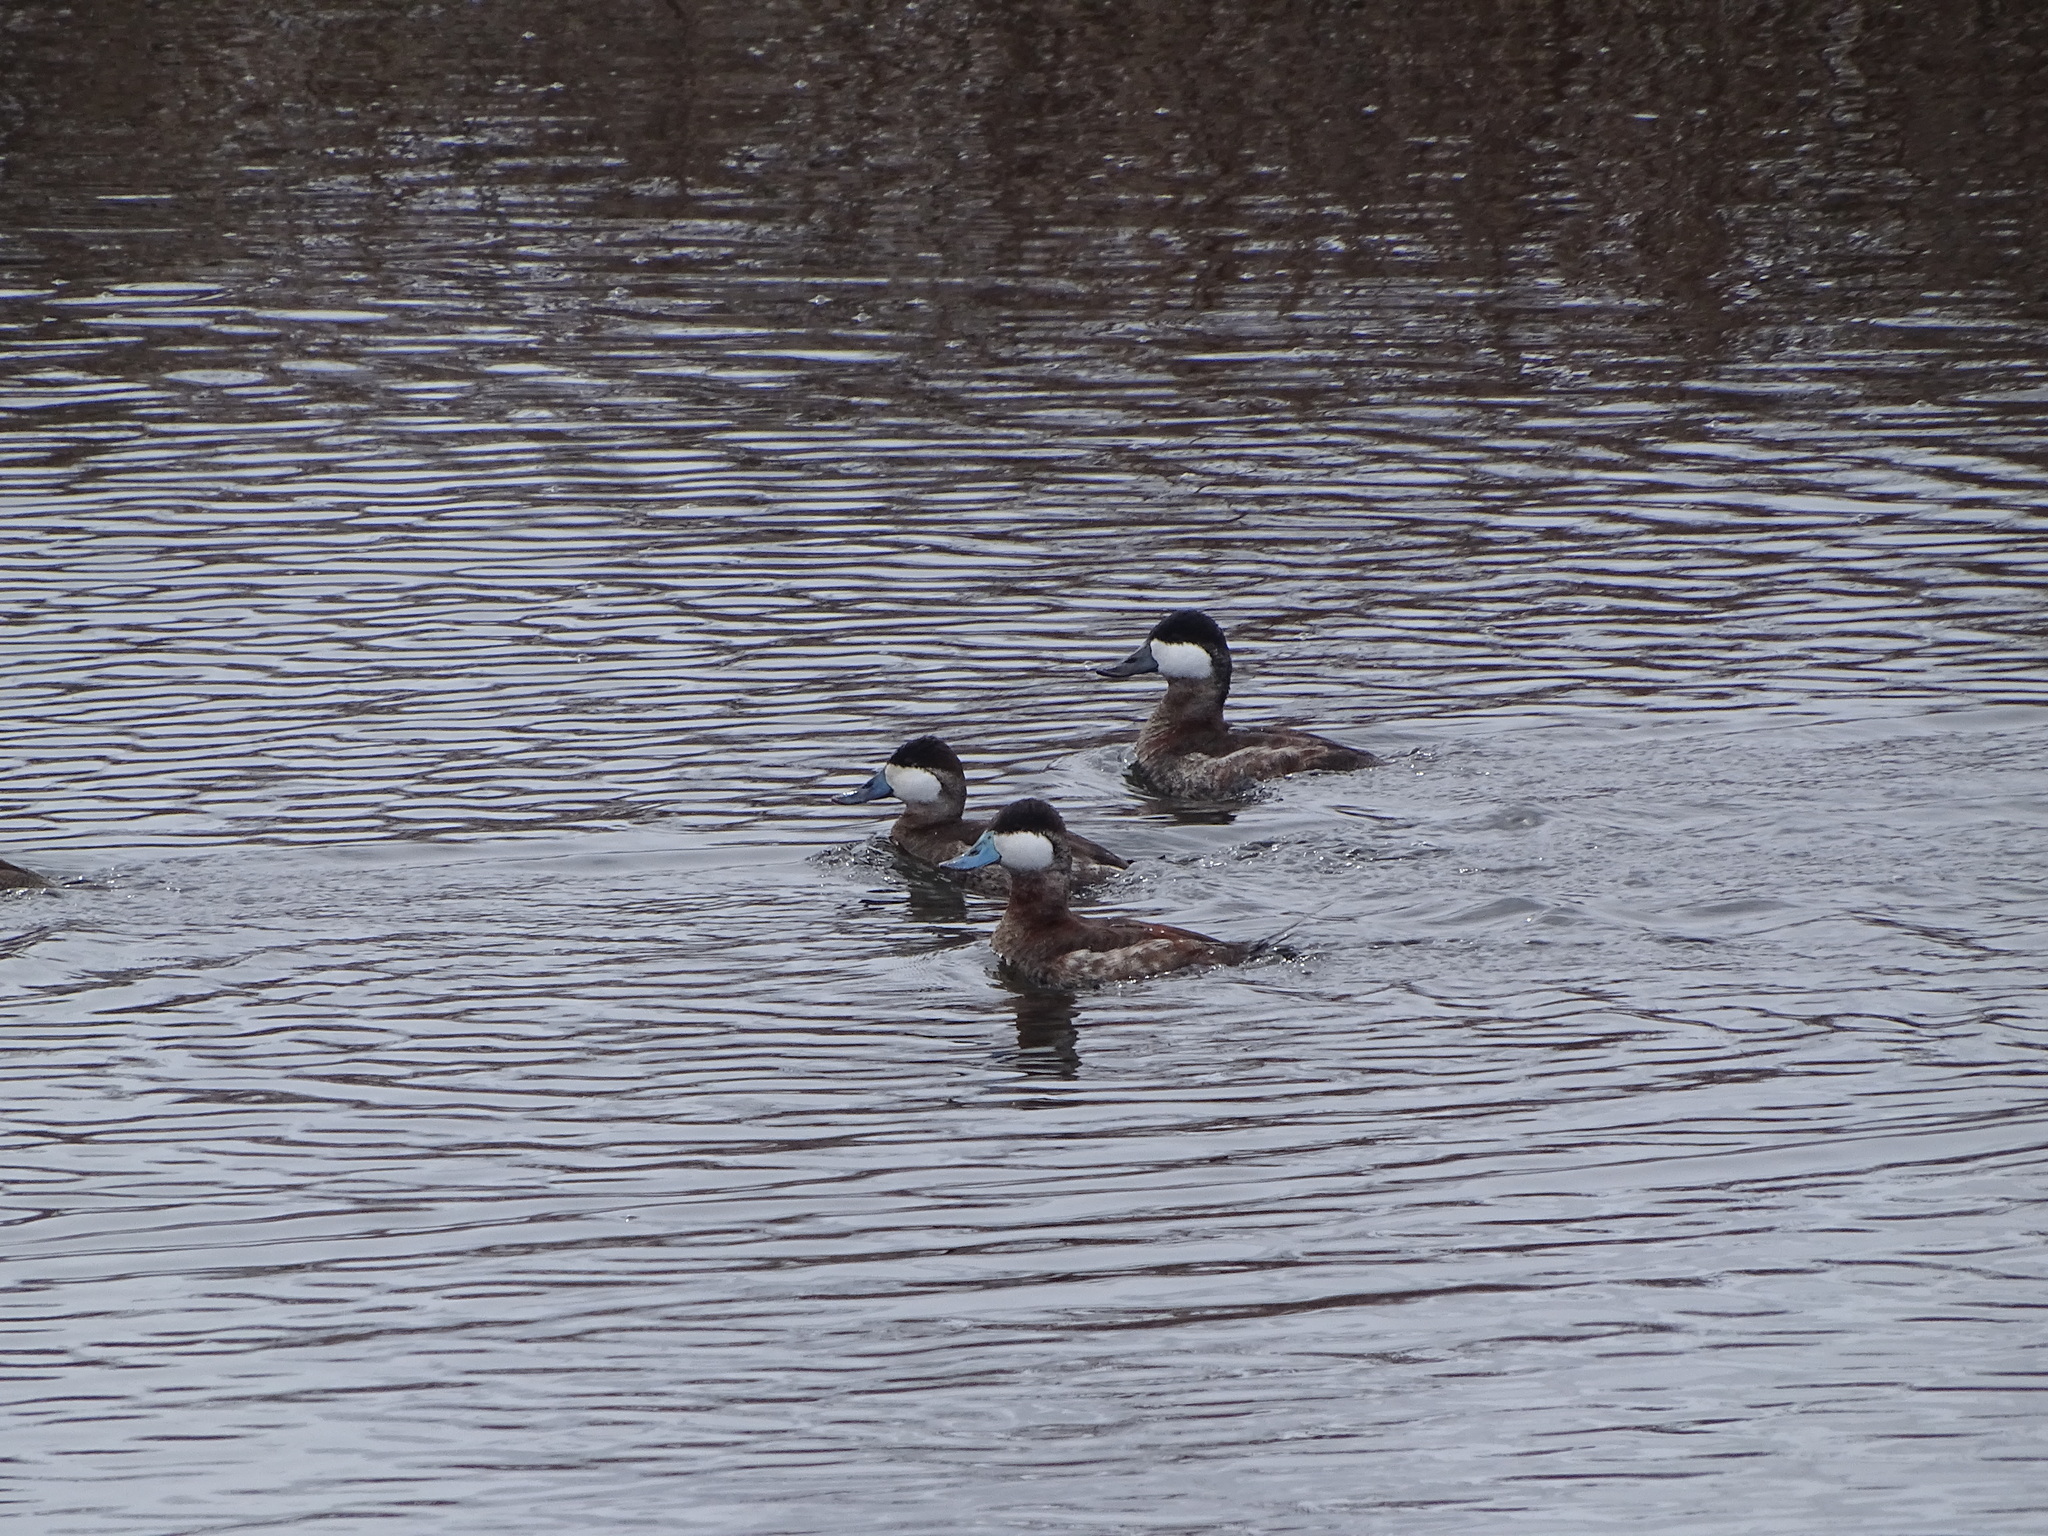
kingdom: Animalia
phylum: Chordata
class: Aves
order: Anseriformes
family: Anatidae
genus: Oxyura
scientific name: Oxyura jamaicensis
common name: Ruddy duck
